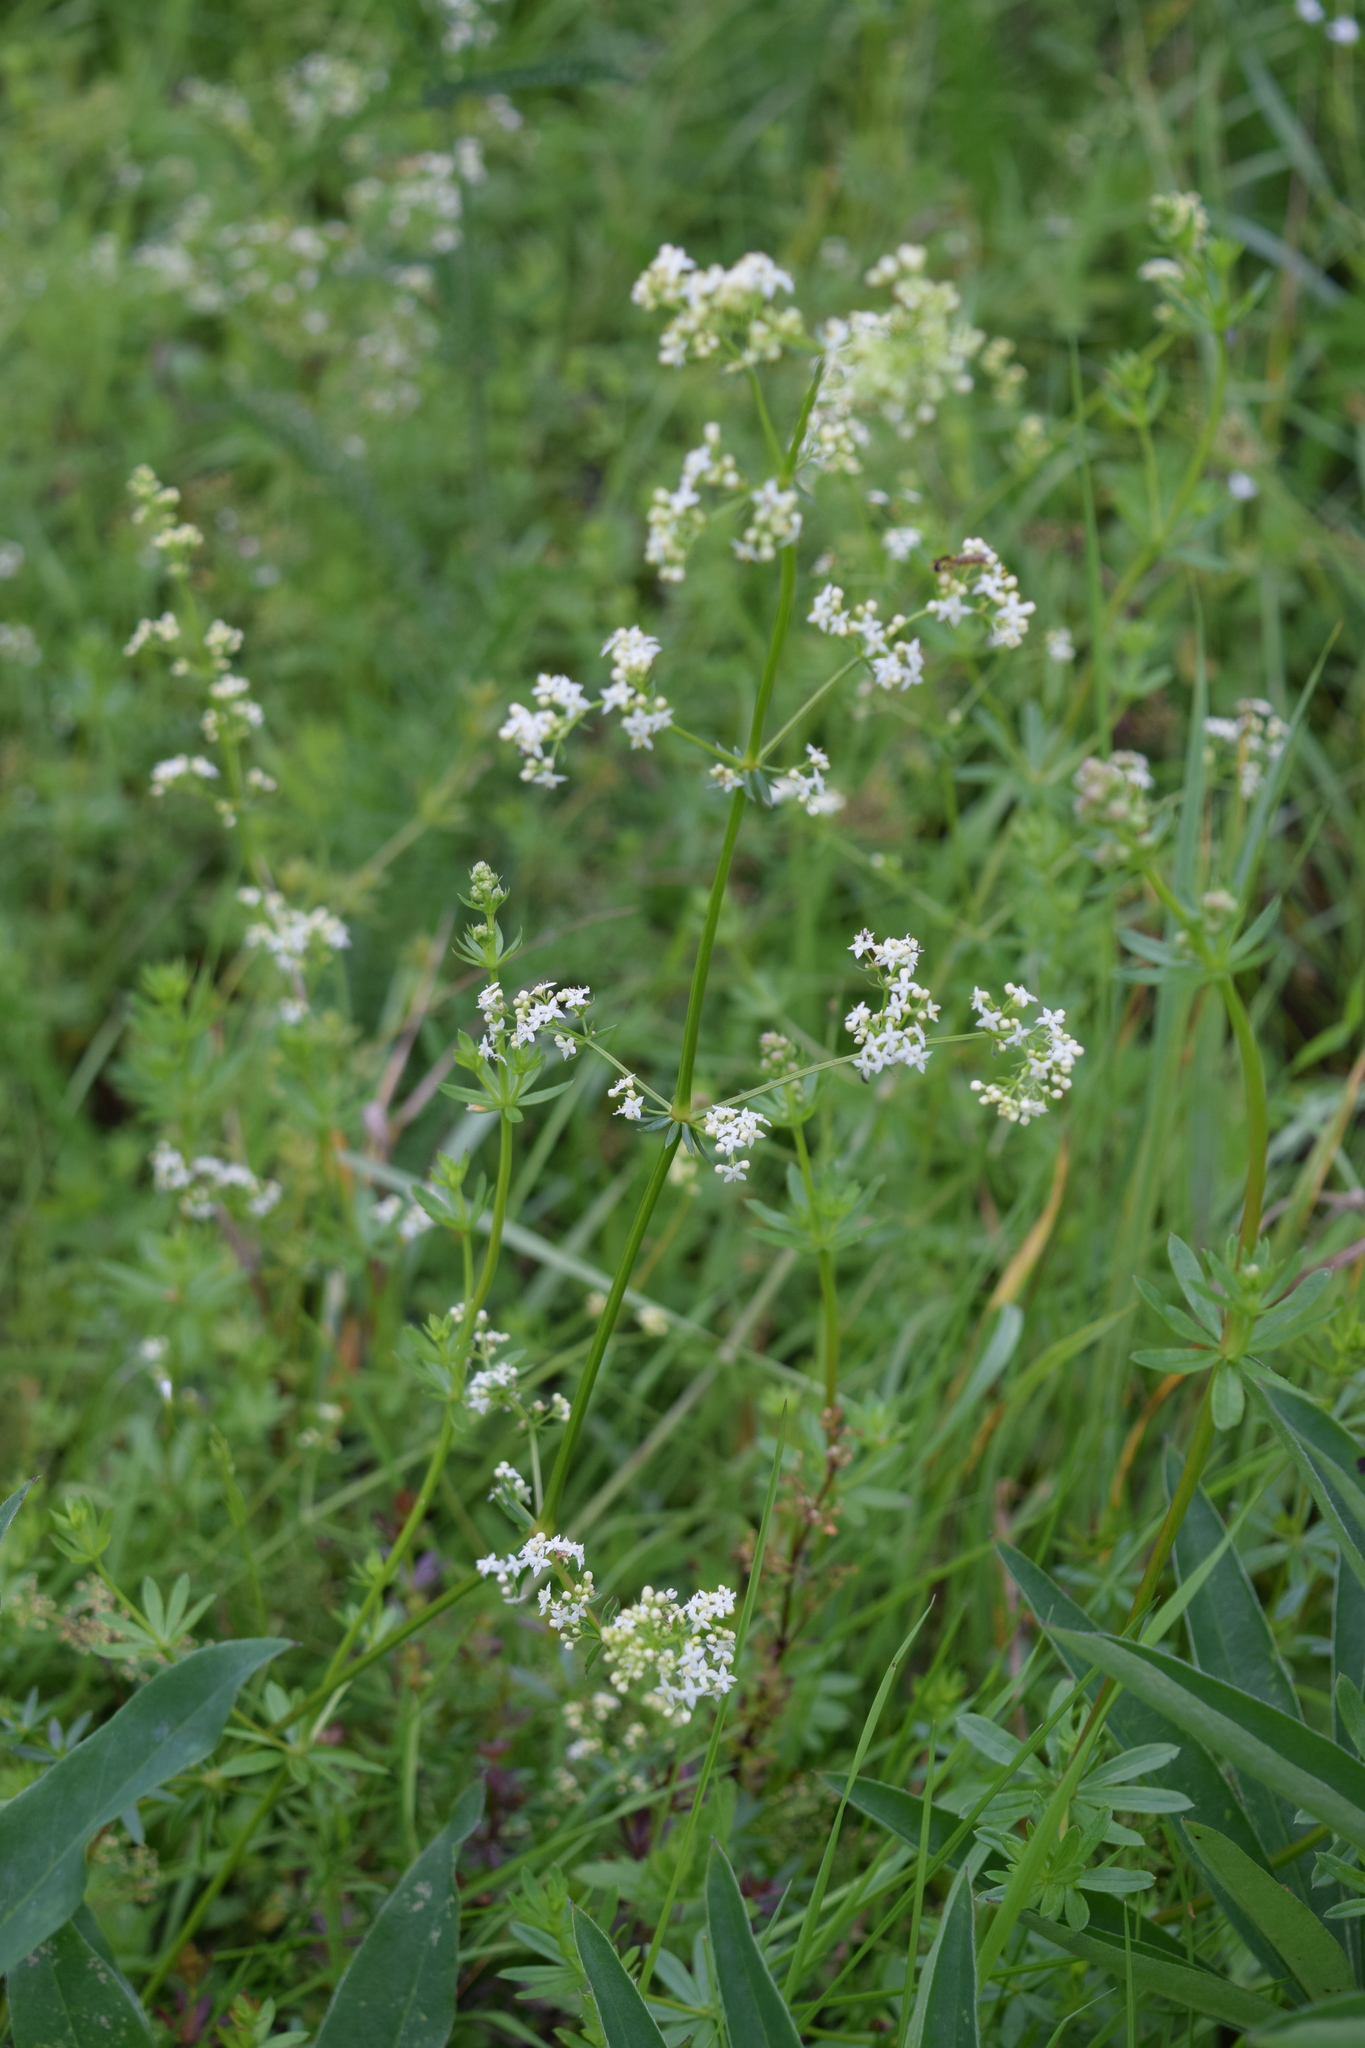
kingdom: Plantae
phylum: Tracheophyta
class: Magnoliopsida
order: Gentianales
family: Rubiaceae
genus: Galium
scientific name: Galium mollugo
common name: Hedge bedstraw
